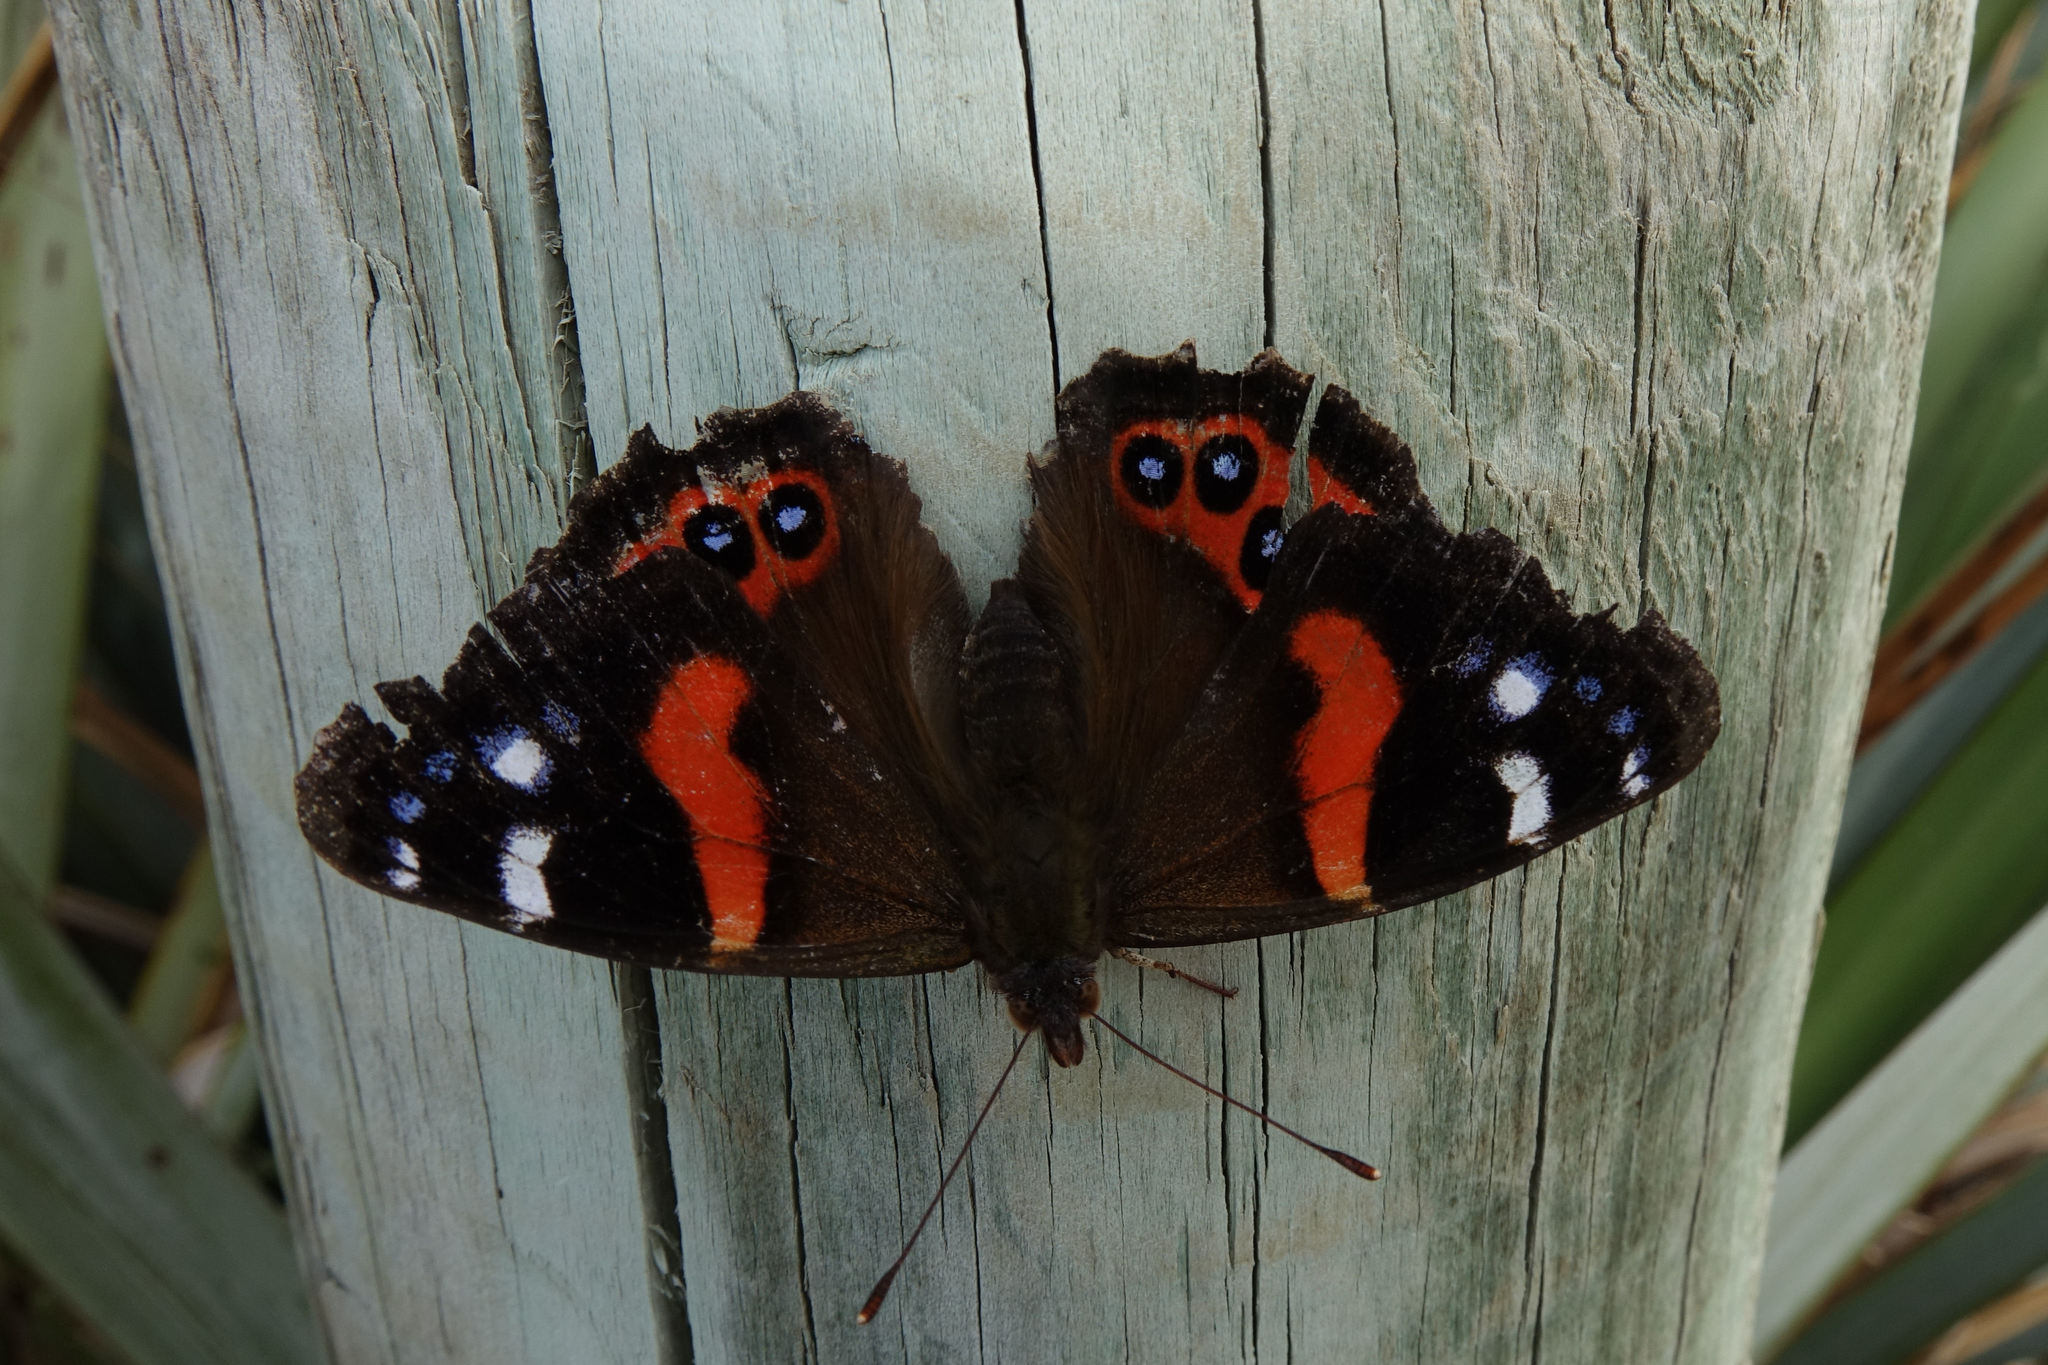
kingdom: Animalia
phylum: Arthropoda
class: Insecta
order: Lepidoptera
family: Nymphalidae
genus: Vanessa
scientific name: Vanessa gonerilla
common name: New zealand red admiral
